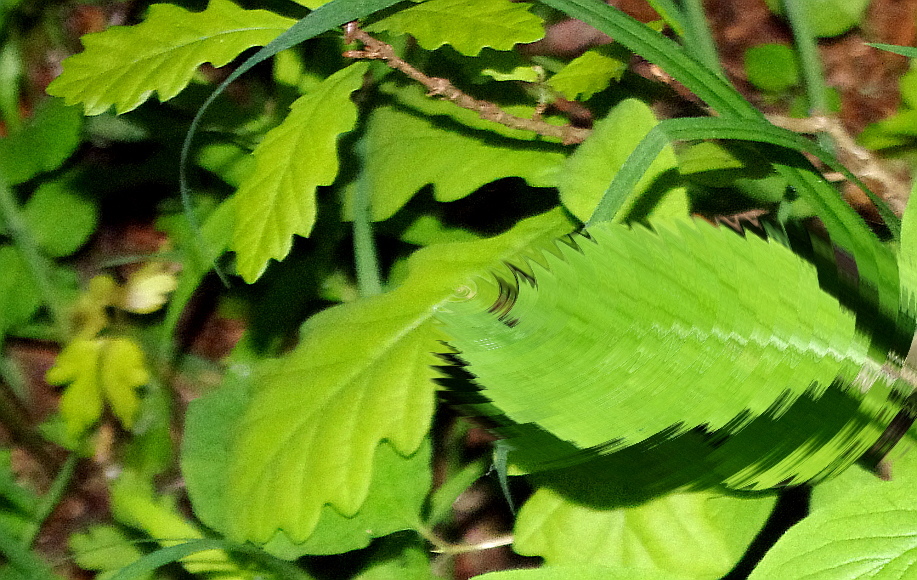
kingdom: Plantae
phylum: Tracheophyta
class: Magnoliopsida
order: Fagales
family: Fagaceae
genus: Quercus
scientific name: Quercus robur
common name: Pedunculate oak
